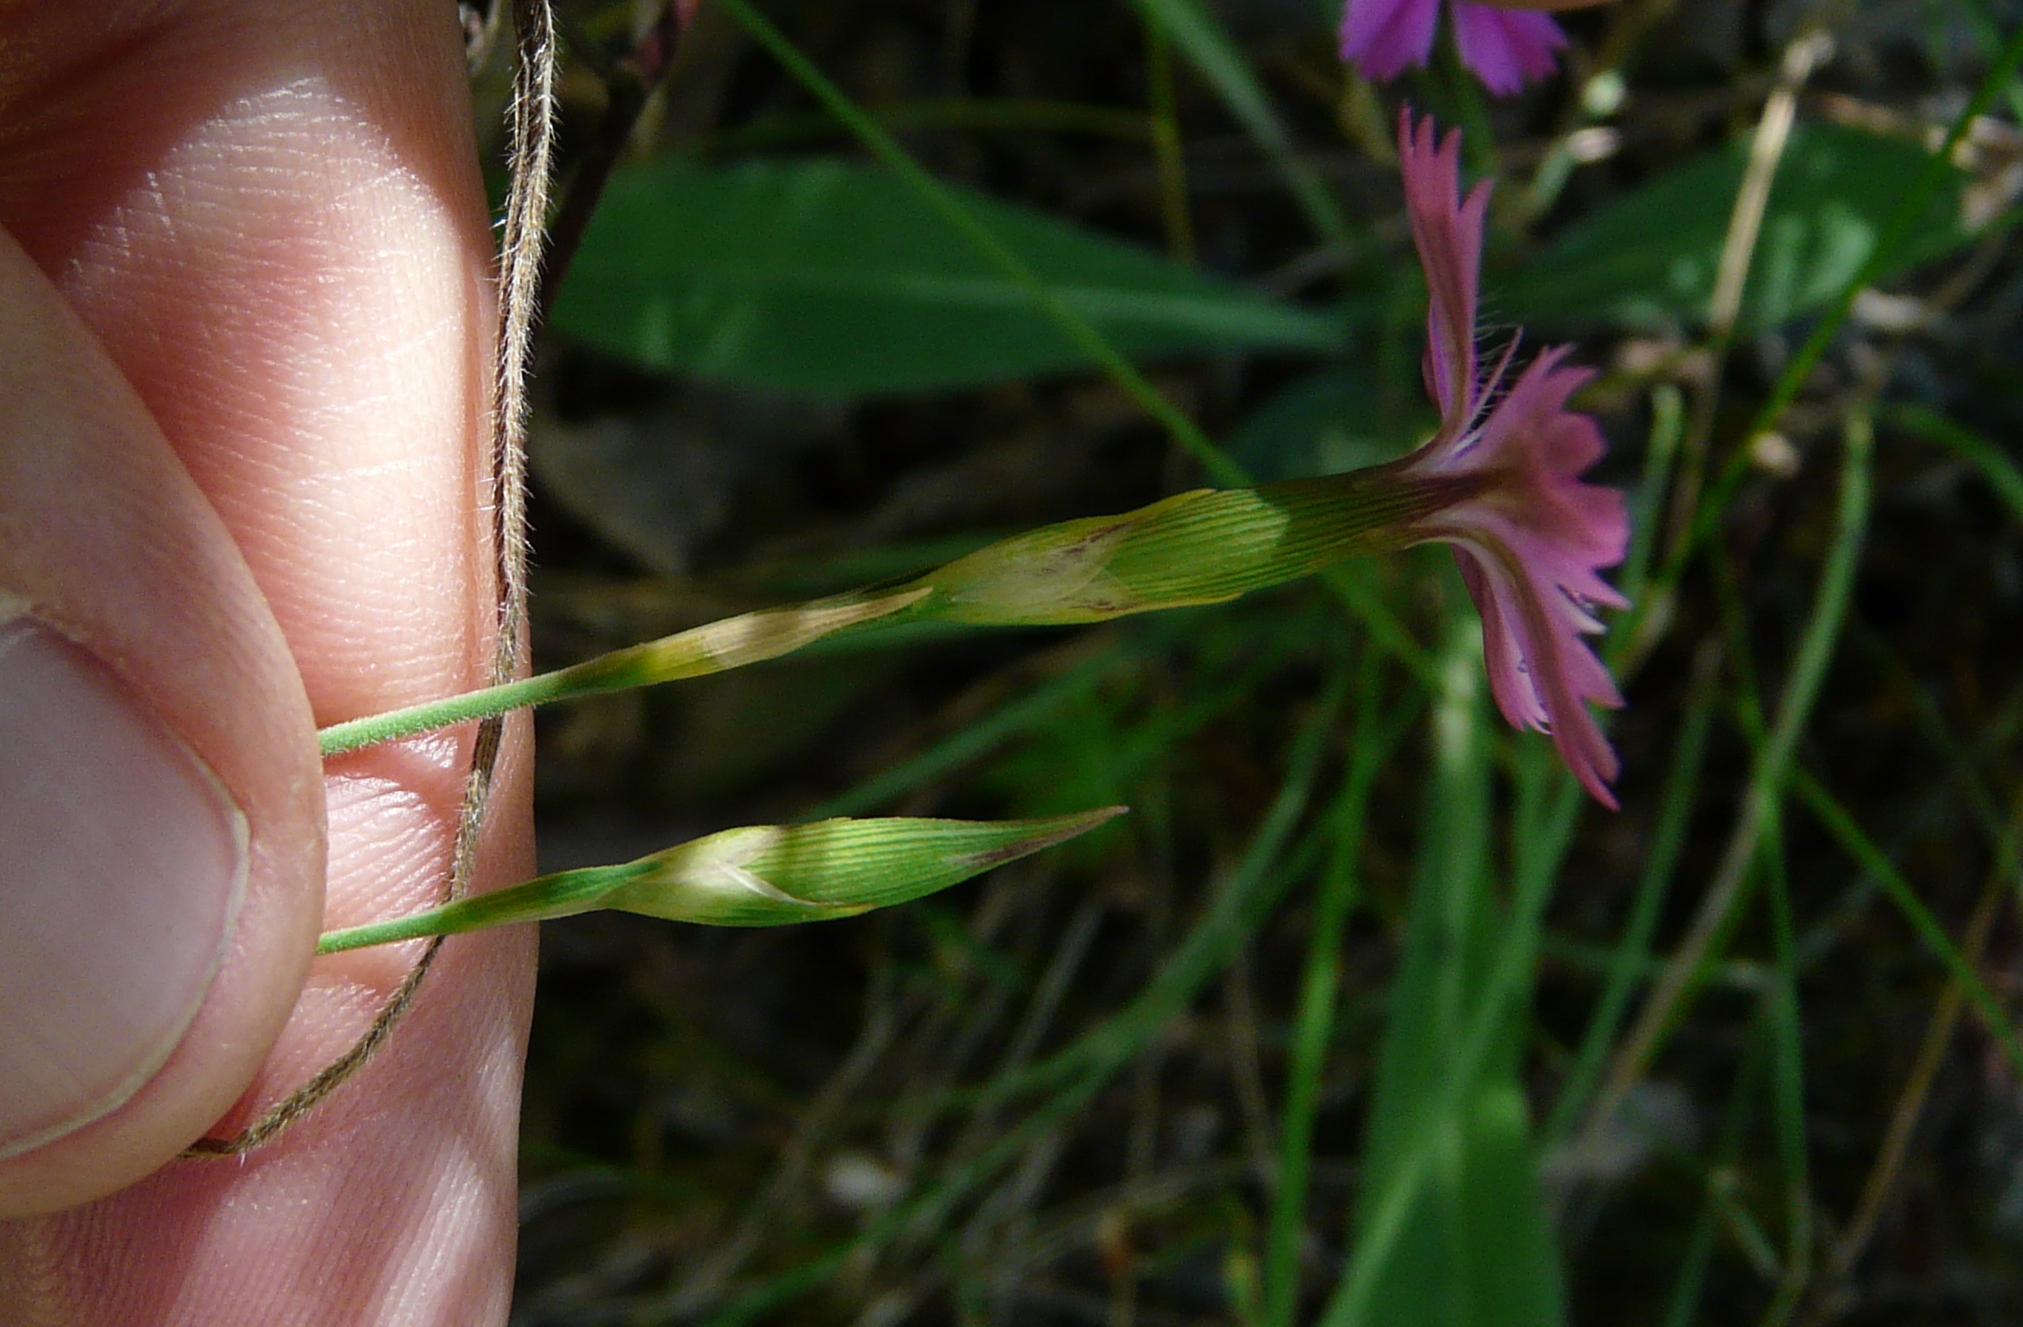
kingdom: Plantae
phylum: Tracheophyta
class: Magnoliopsida
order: Caryophyllales
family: Caryophyllaceae
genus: Dianthus
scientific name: Dianthus deltoides
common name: Maiden pink
